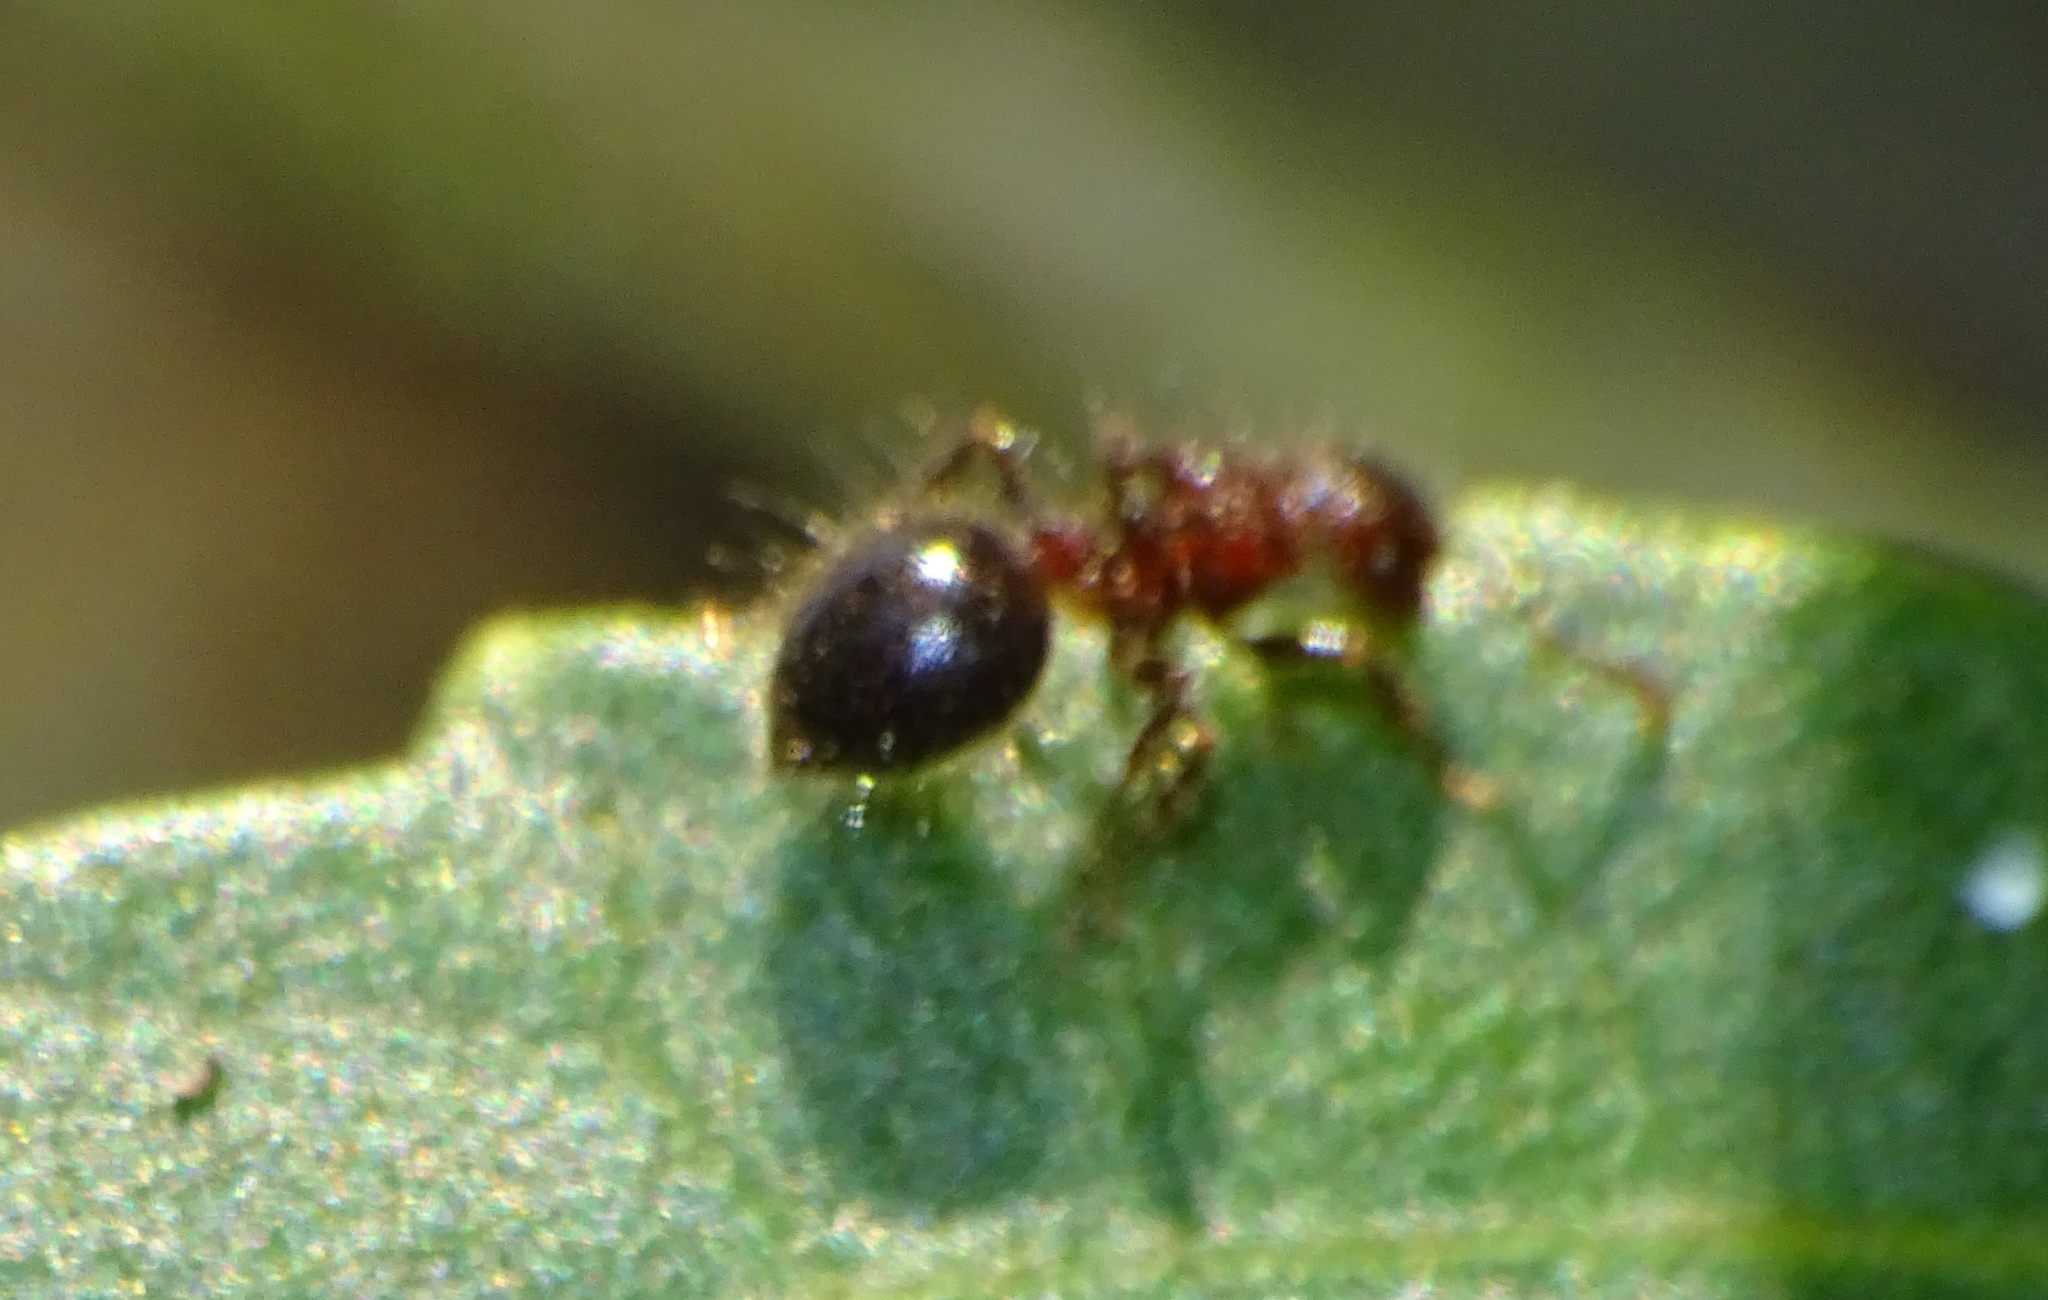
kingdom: Animalia
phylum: Arthropoda
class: Insecta
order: Hymenoptera
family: Formicidae
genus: Meranoplus
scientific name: Meranoplus bicolor
